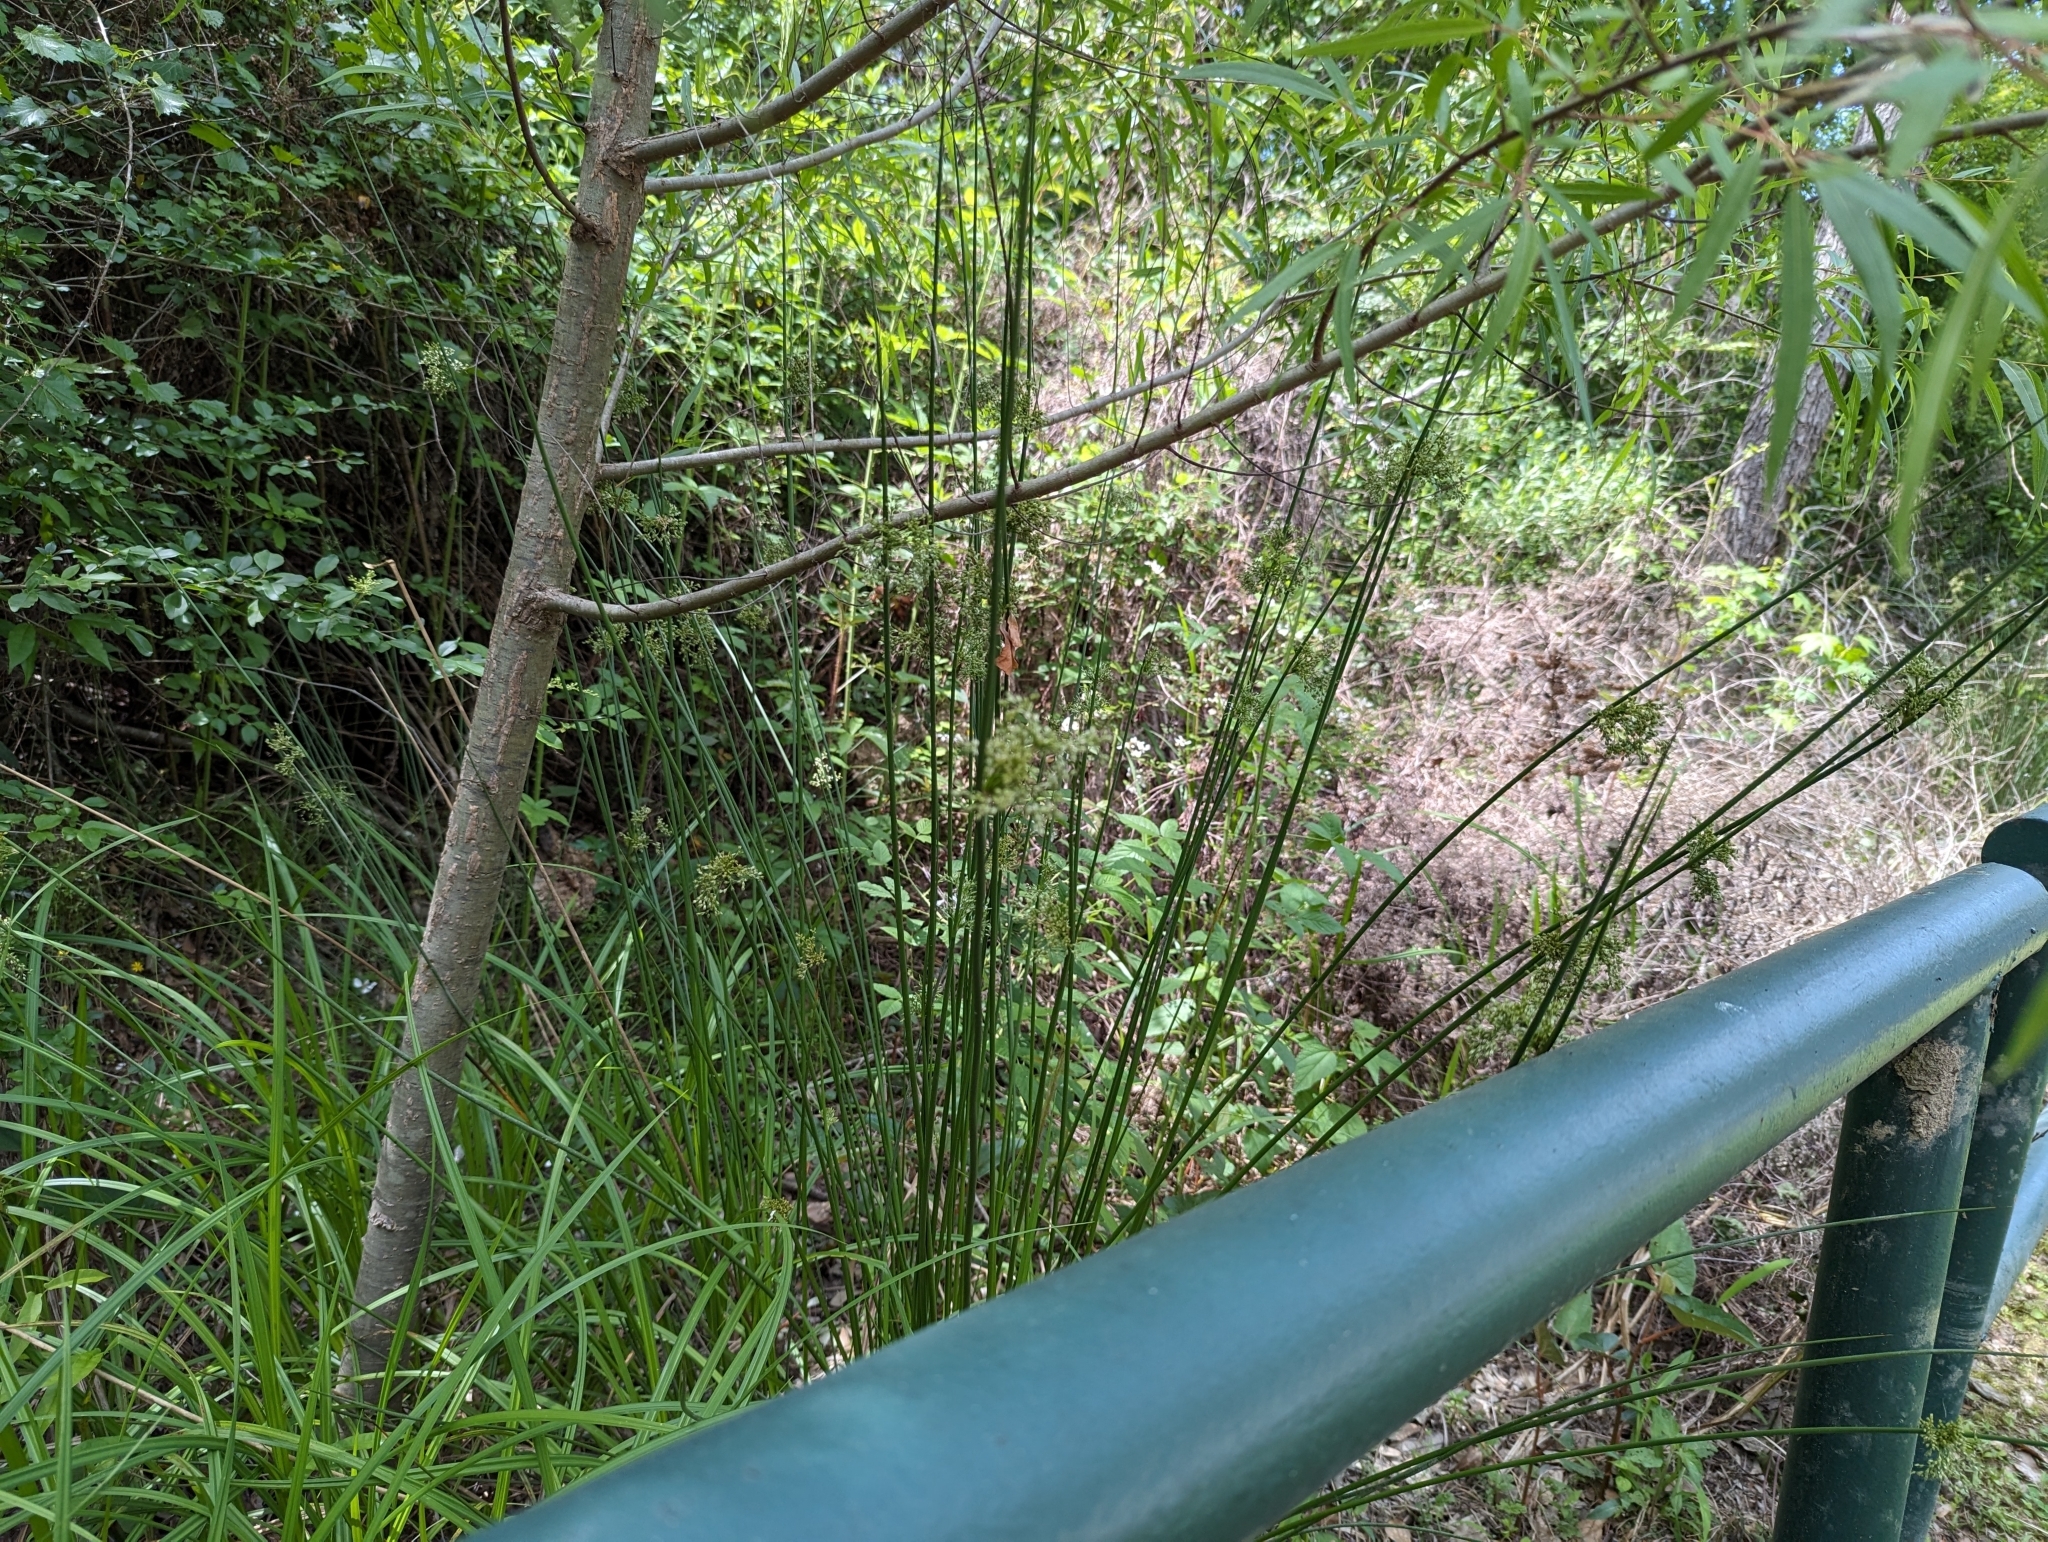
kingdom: Plantae
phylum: Tracheophyta
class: Liliopsida
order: Poales
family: Juncaceae
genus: Juncus
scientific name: Juncus effusus
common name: Soft rush
